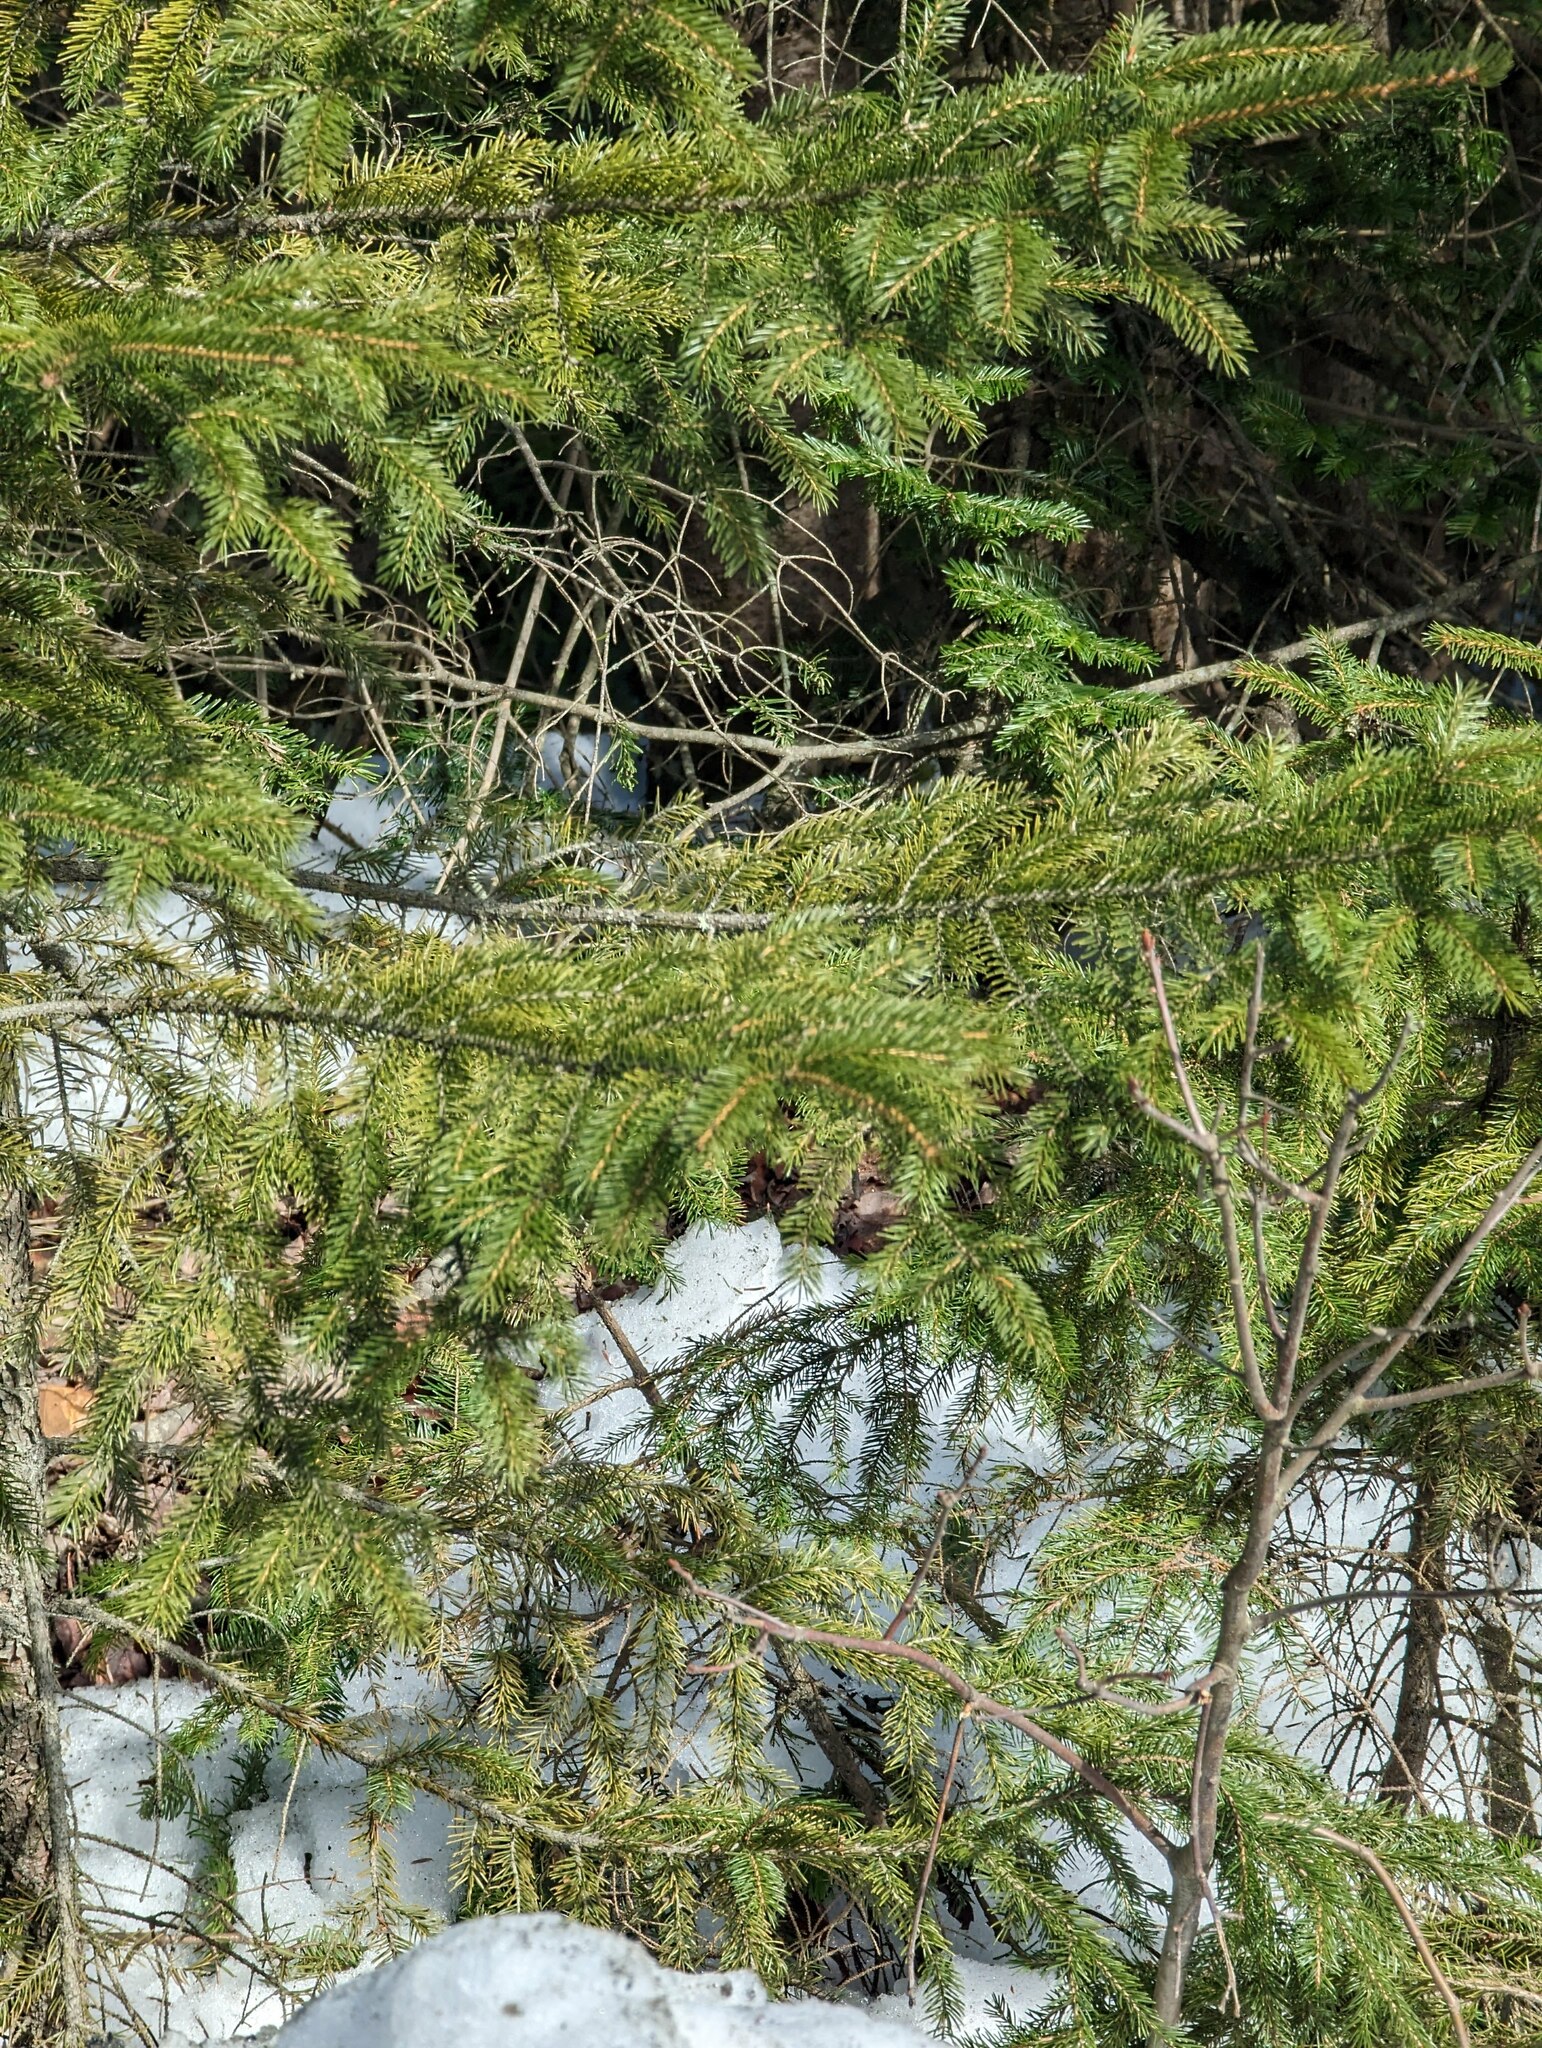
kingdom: Plantae
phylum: Tracheophyta
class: Pinopsida
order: Pinales
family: Pinaceae
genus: Picea
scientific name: Picea rubens
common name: Red spruce
